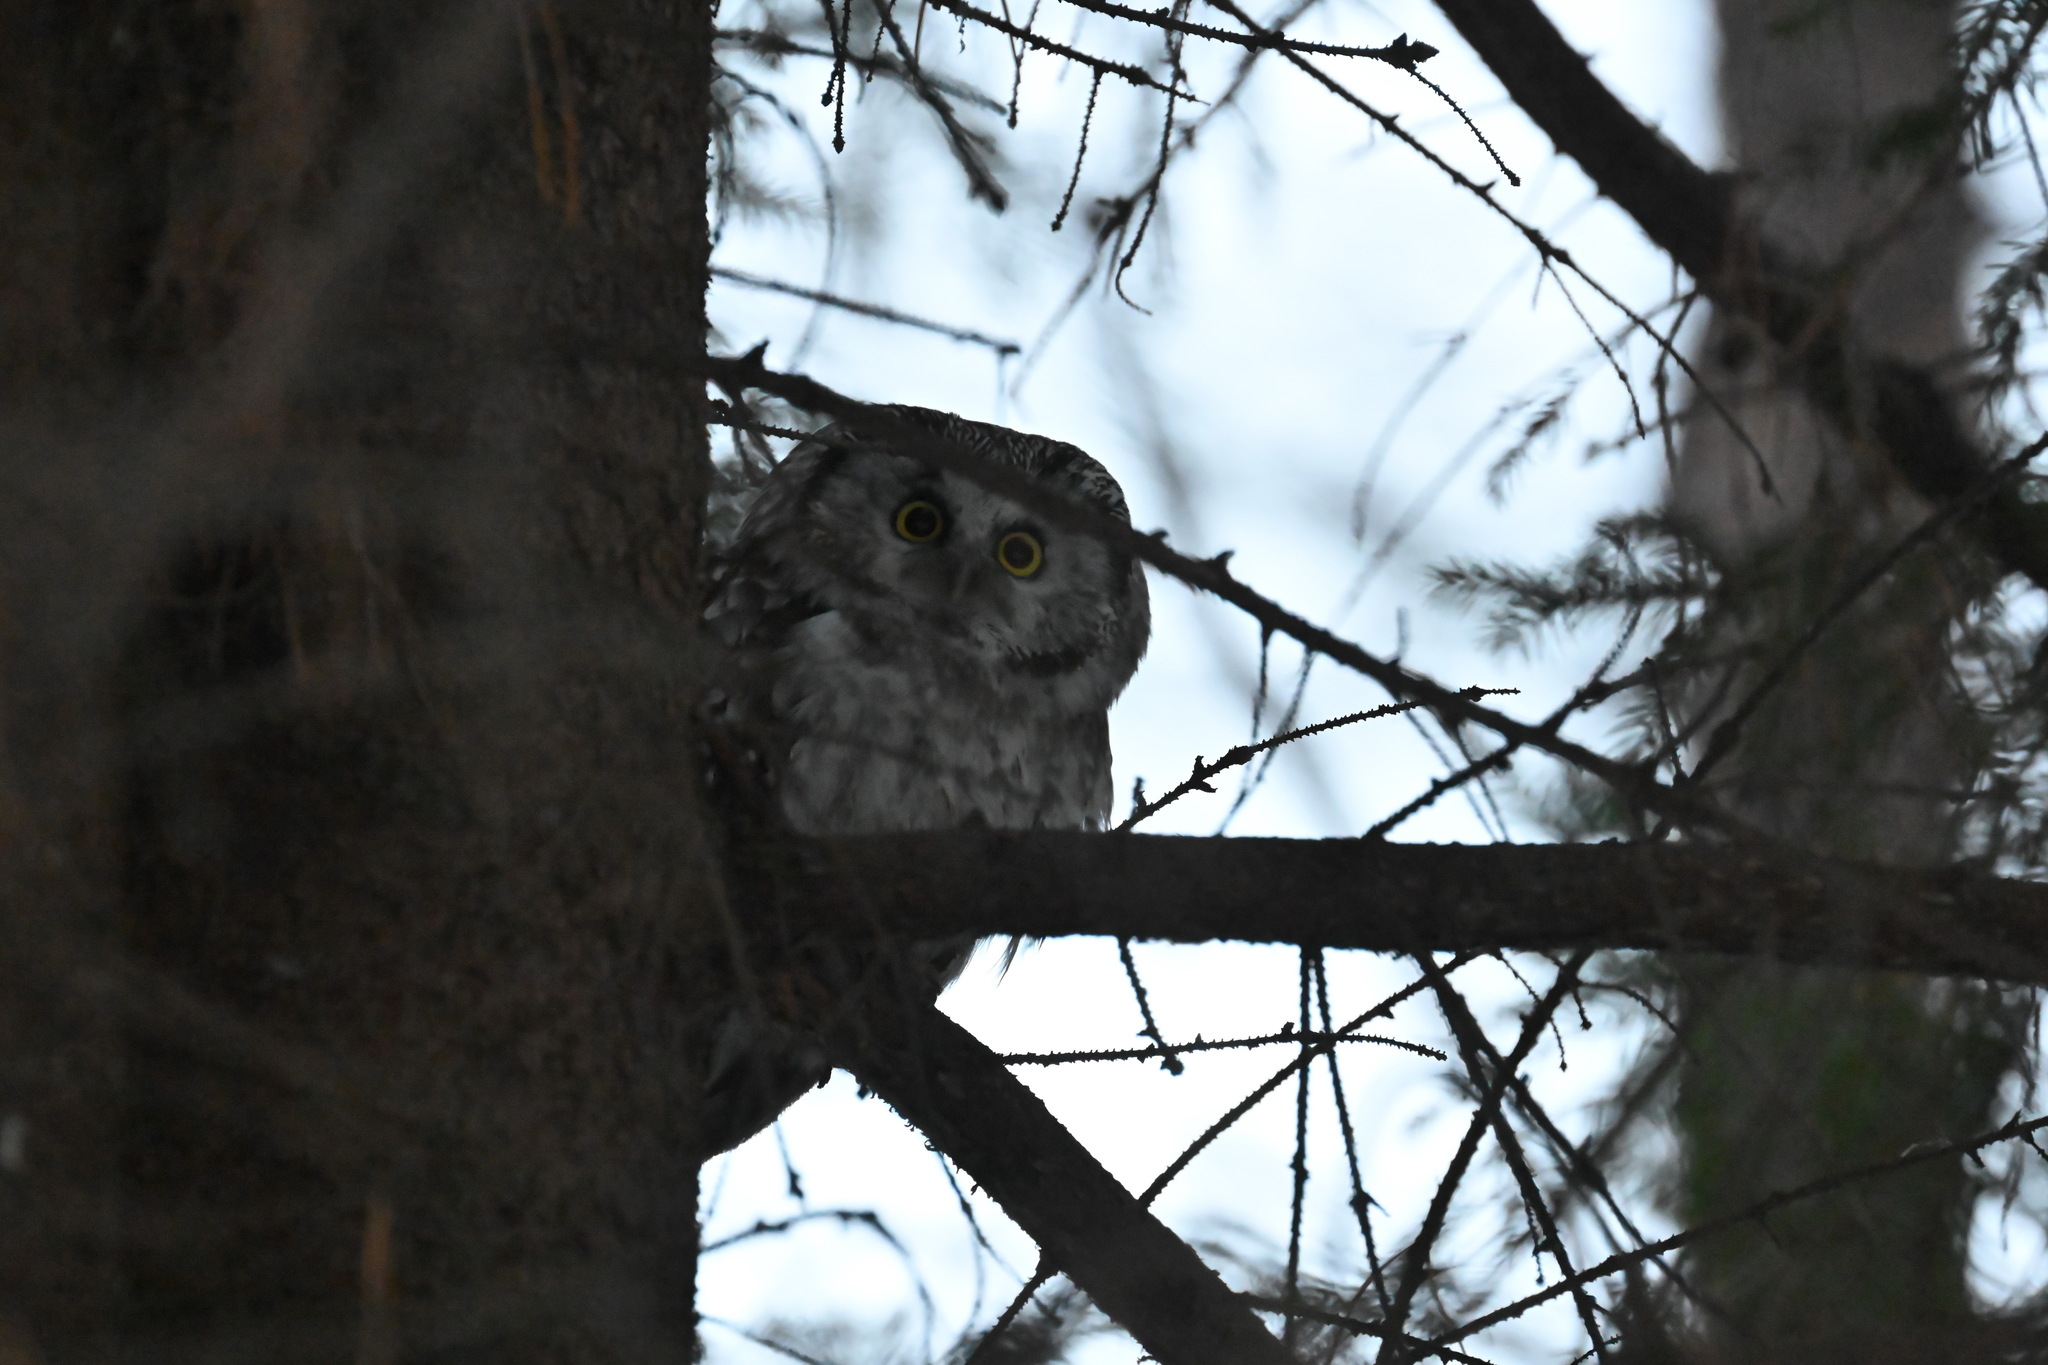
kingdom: Animalia
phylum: Chordata
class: Aves
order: Strigiformes
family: Strigidae
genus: Aegolius
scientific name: Aegolius funereus
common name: Boreal owl
